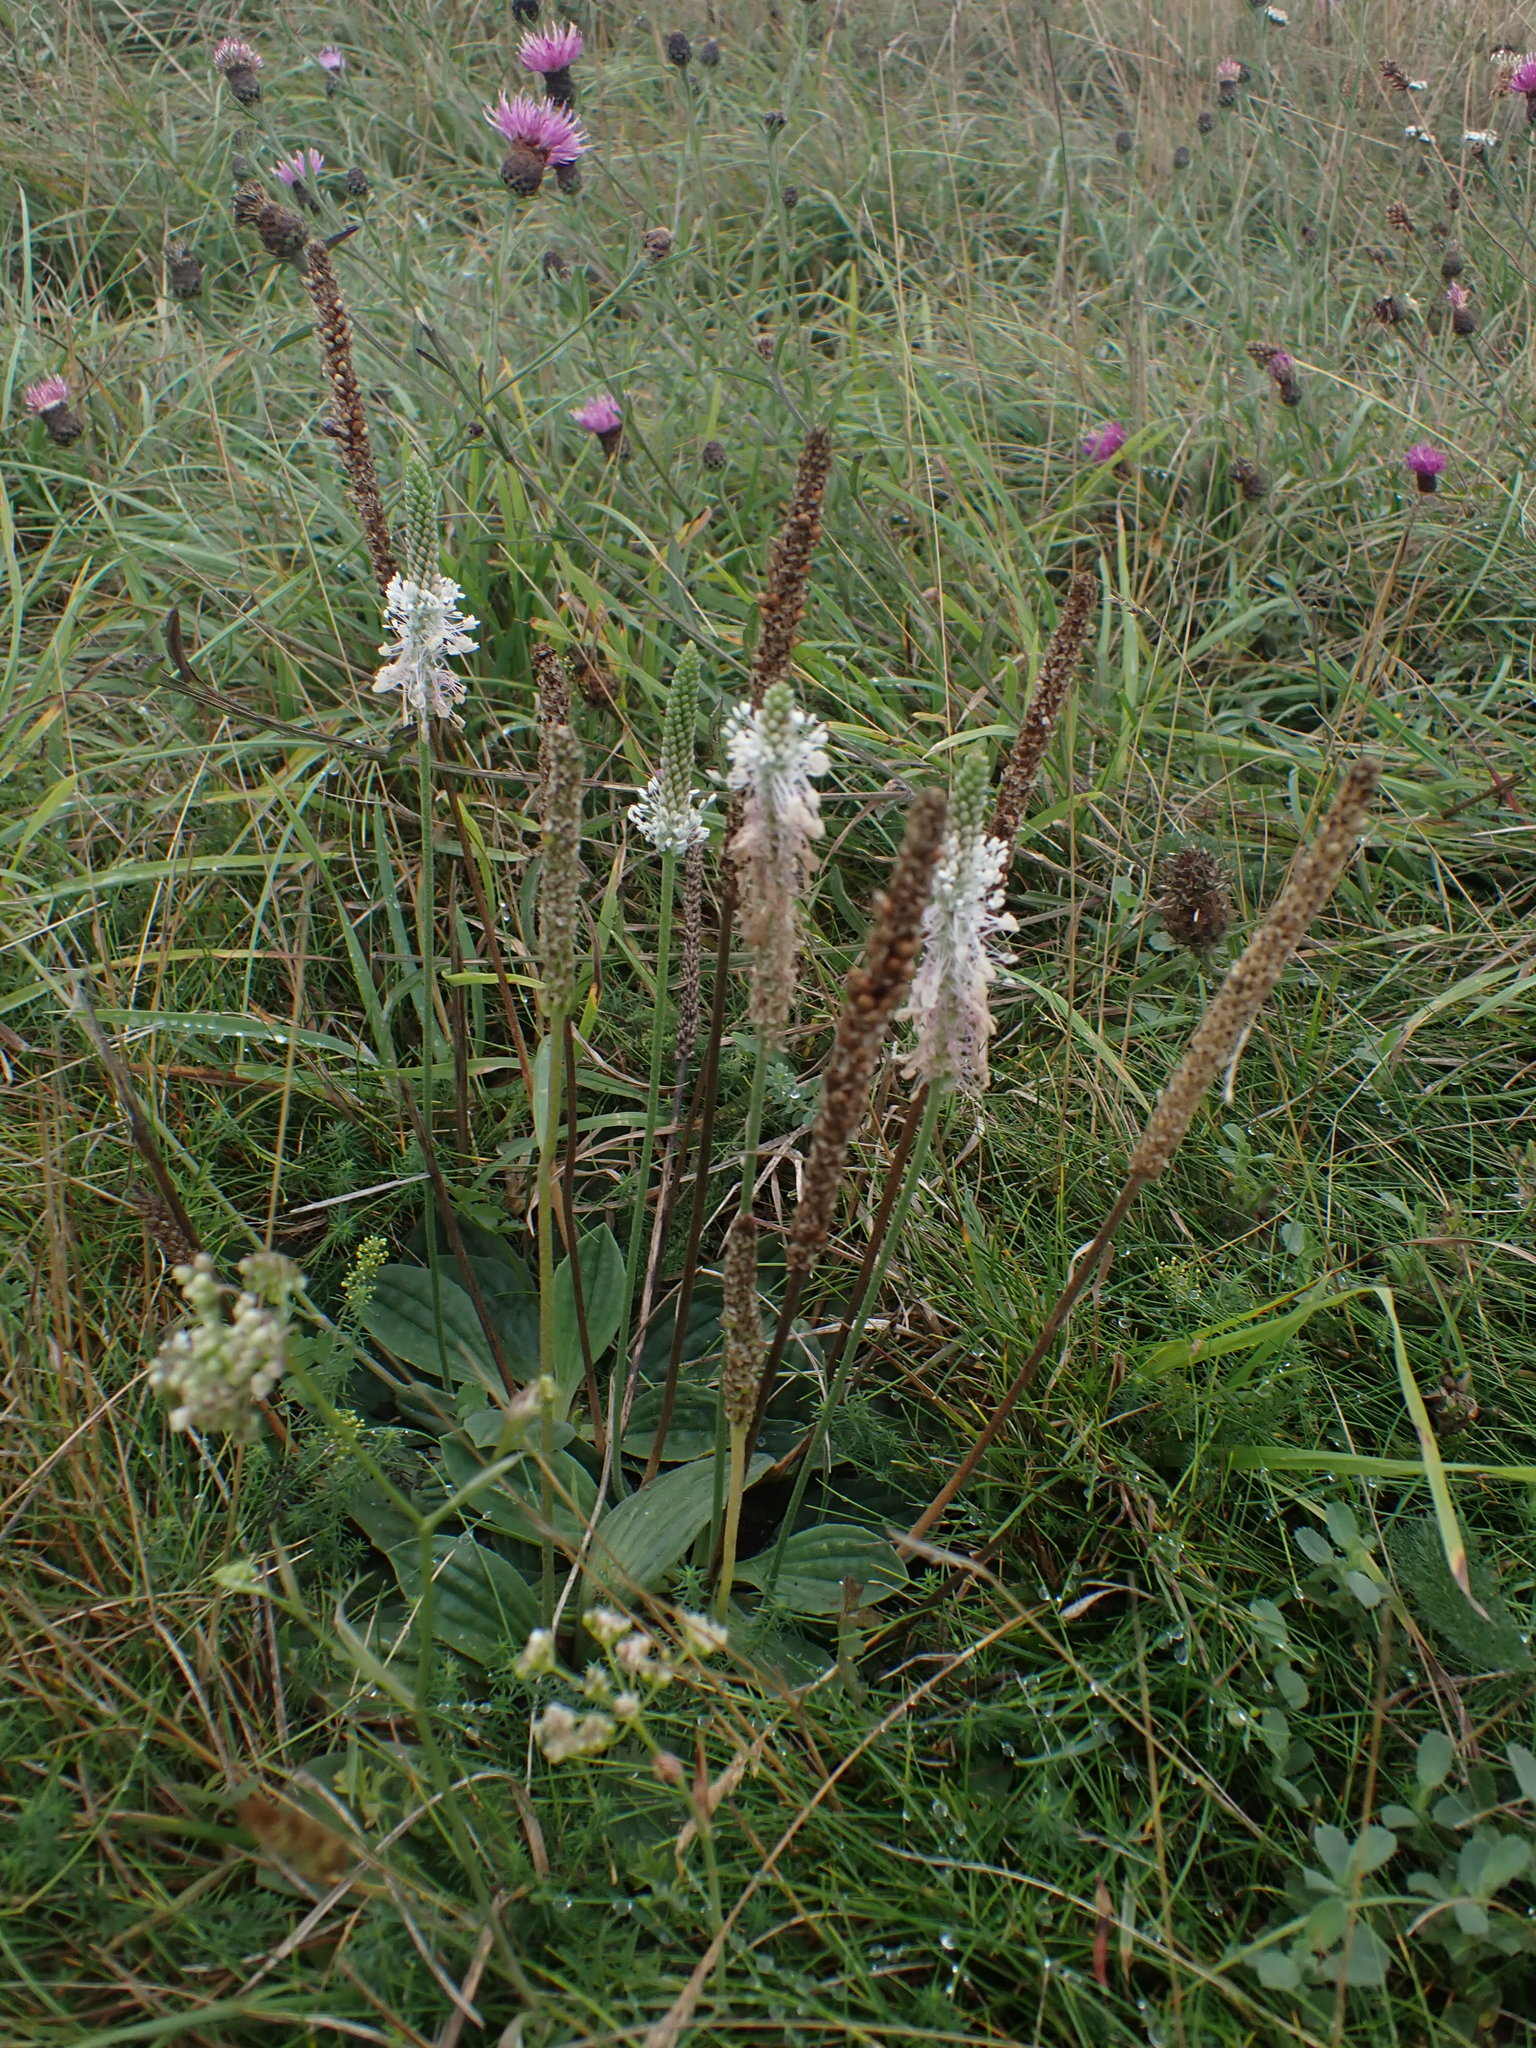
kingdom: Plantae
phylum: Tracheophyta
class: Magnoliopsida
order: Lamiales
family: Plantaginaceae
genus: Plantago
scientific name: Plantago media
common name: Hoary plantain
